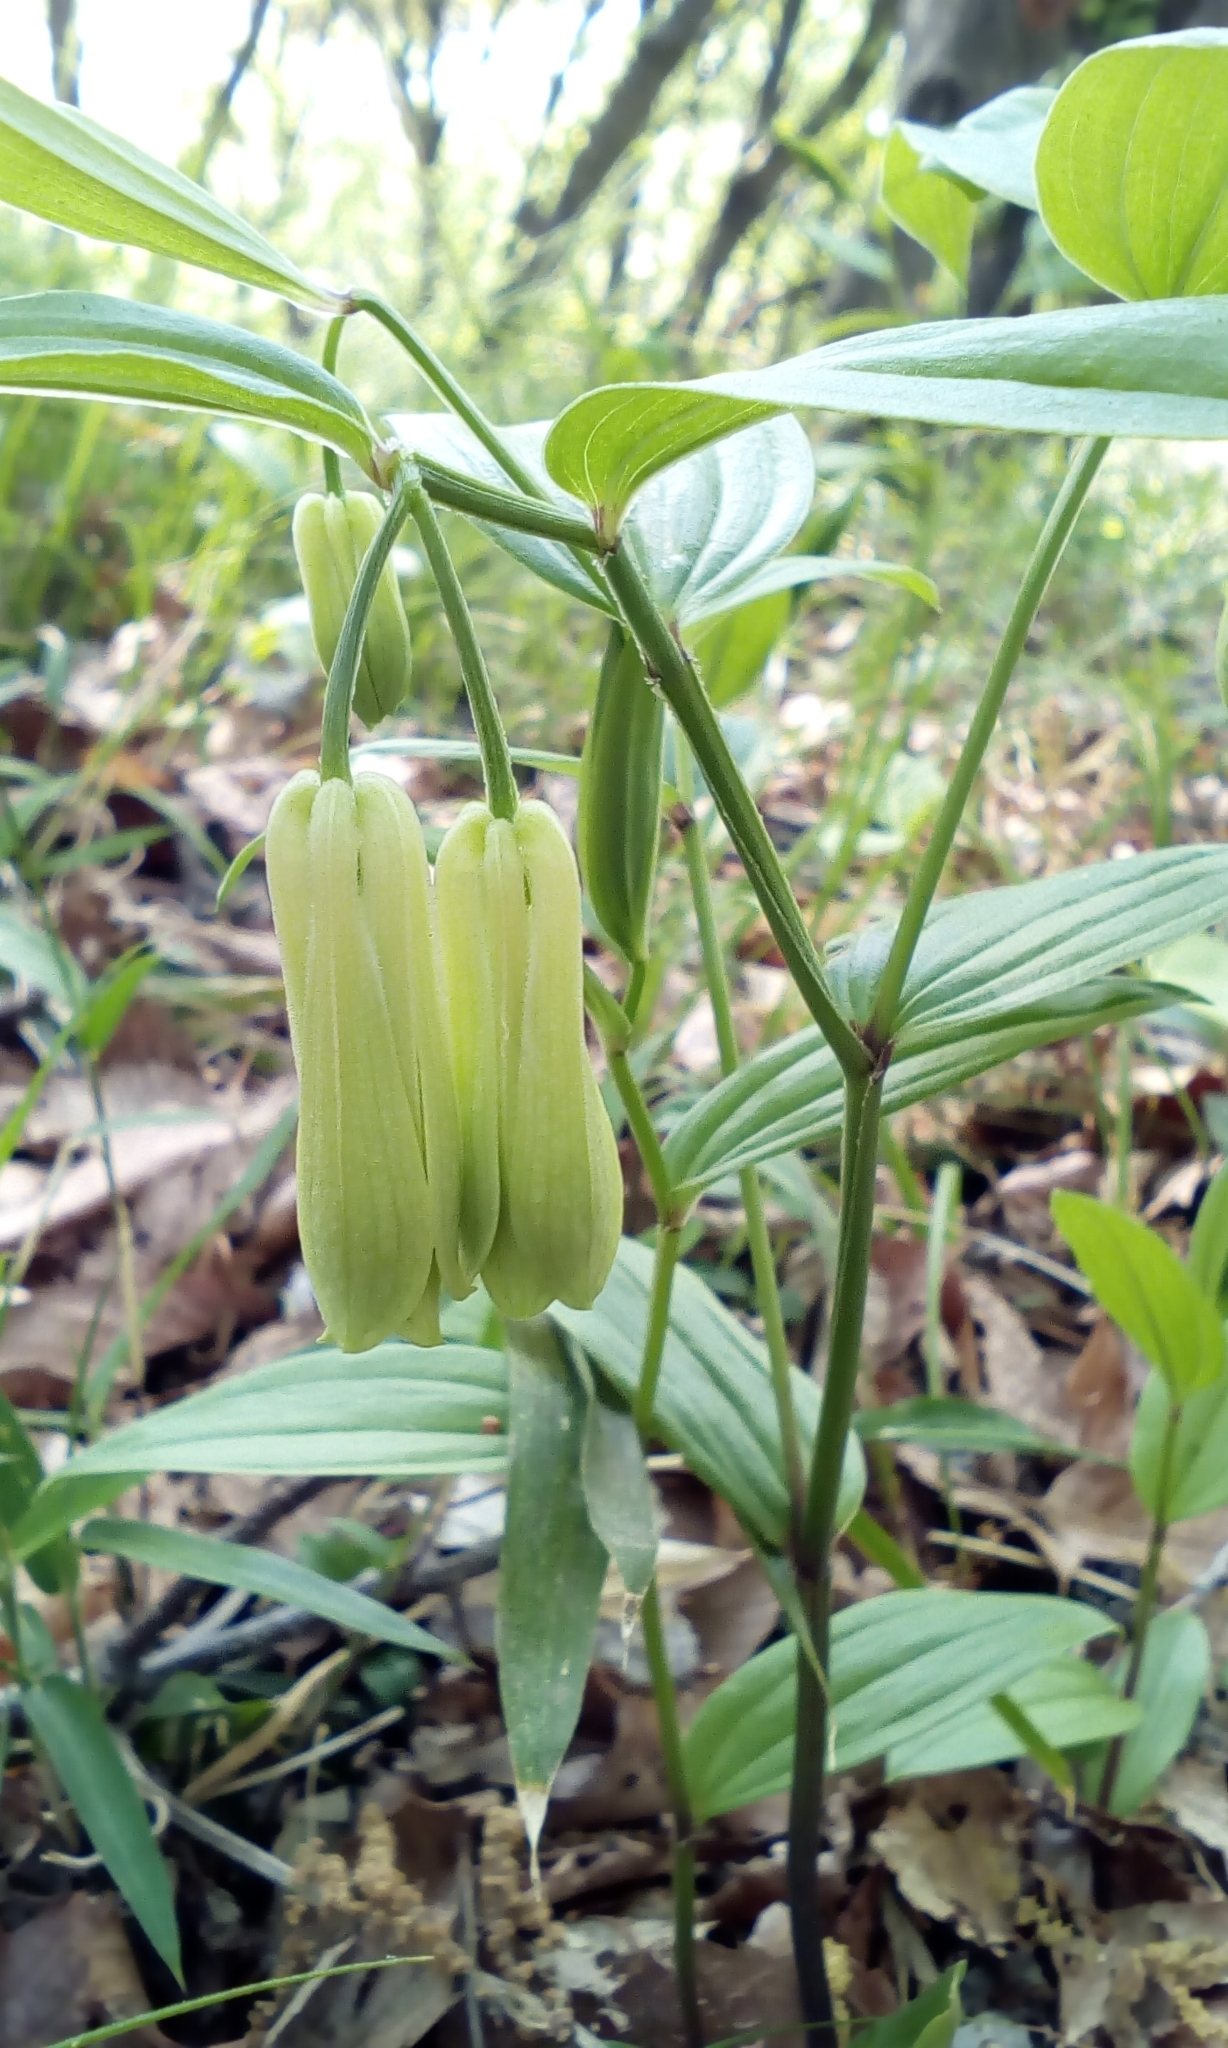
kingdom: Plantae
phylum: Tracheophyta
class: Liliopsida
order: Liliales
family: Colchicaceae
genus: Disporum
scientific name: Disporum sessile
